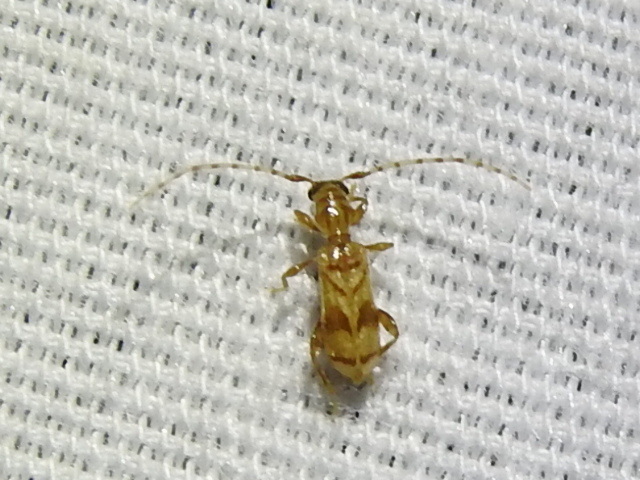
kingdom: Animalia
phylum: Arthropoda
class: Insecta
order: Coleoptera
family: Cerambycidae
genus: Obrium
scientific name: Obrium maculatum
